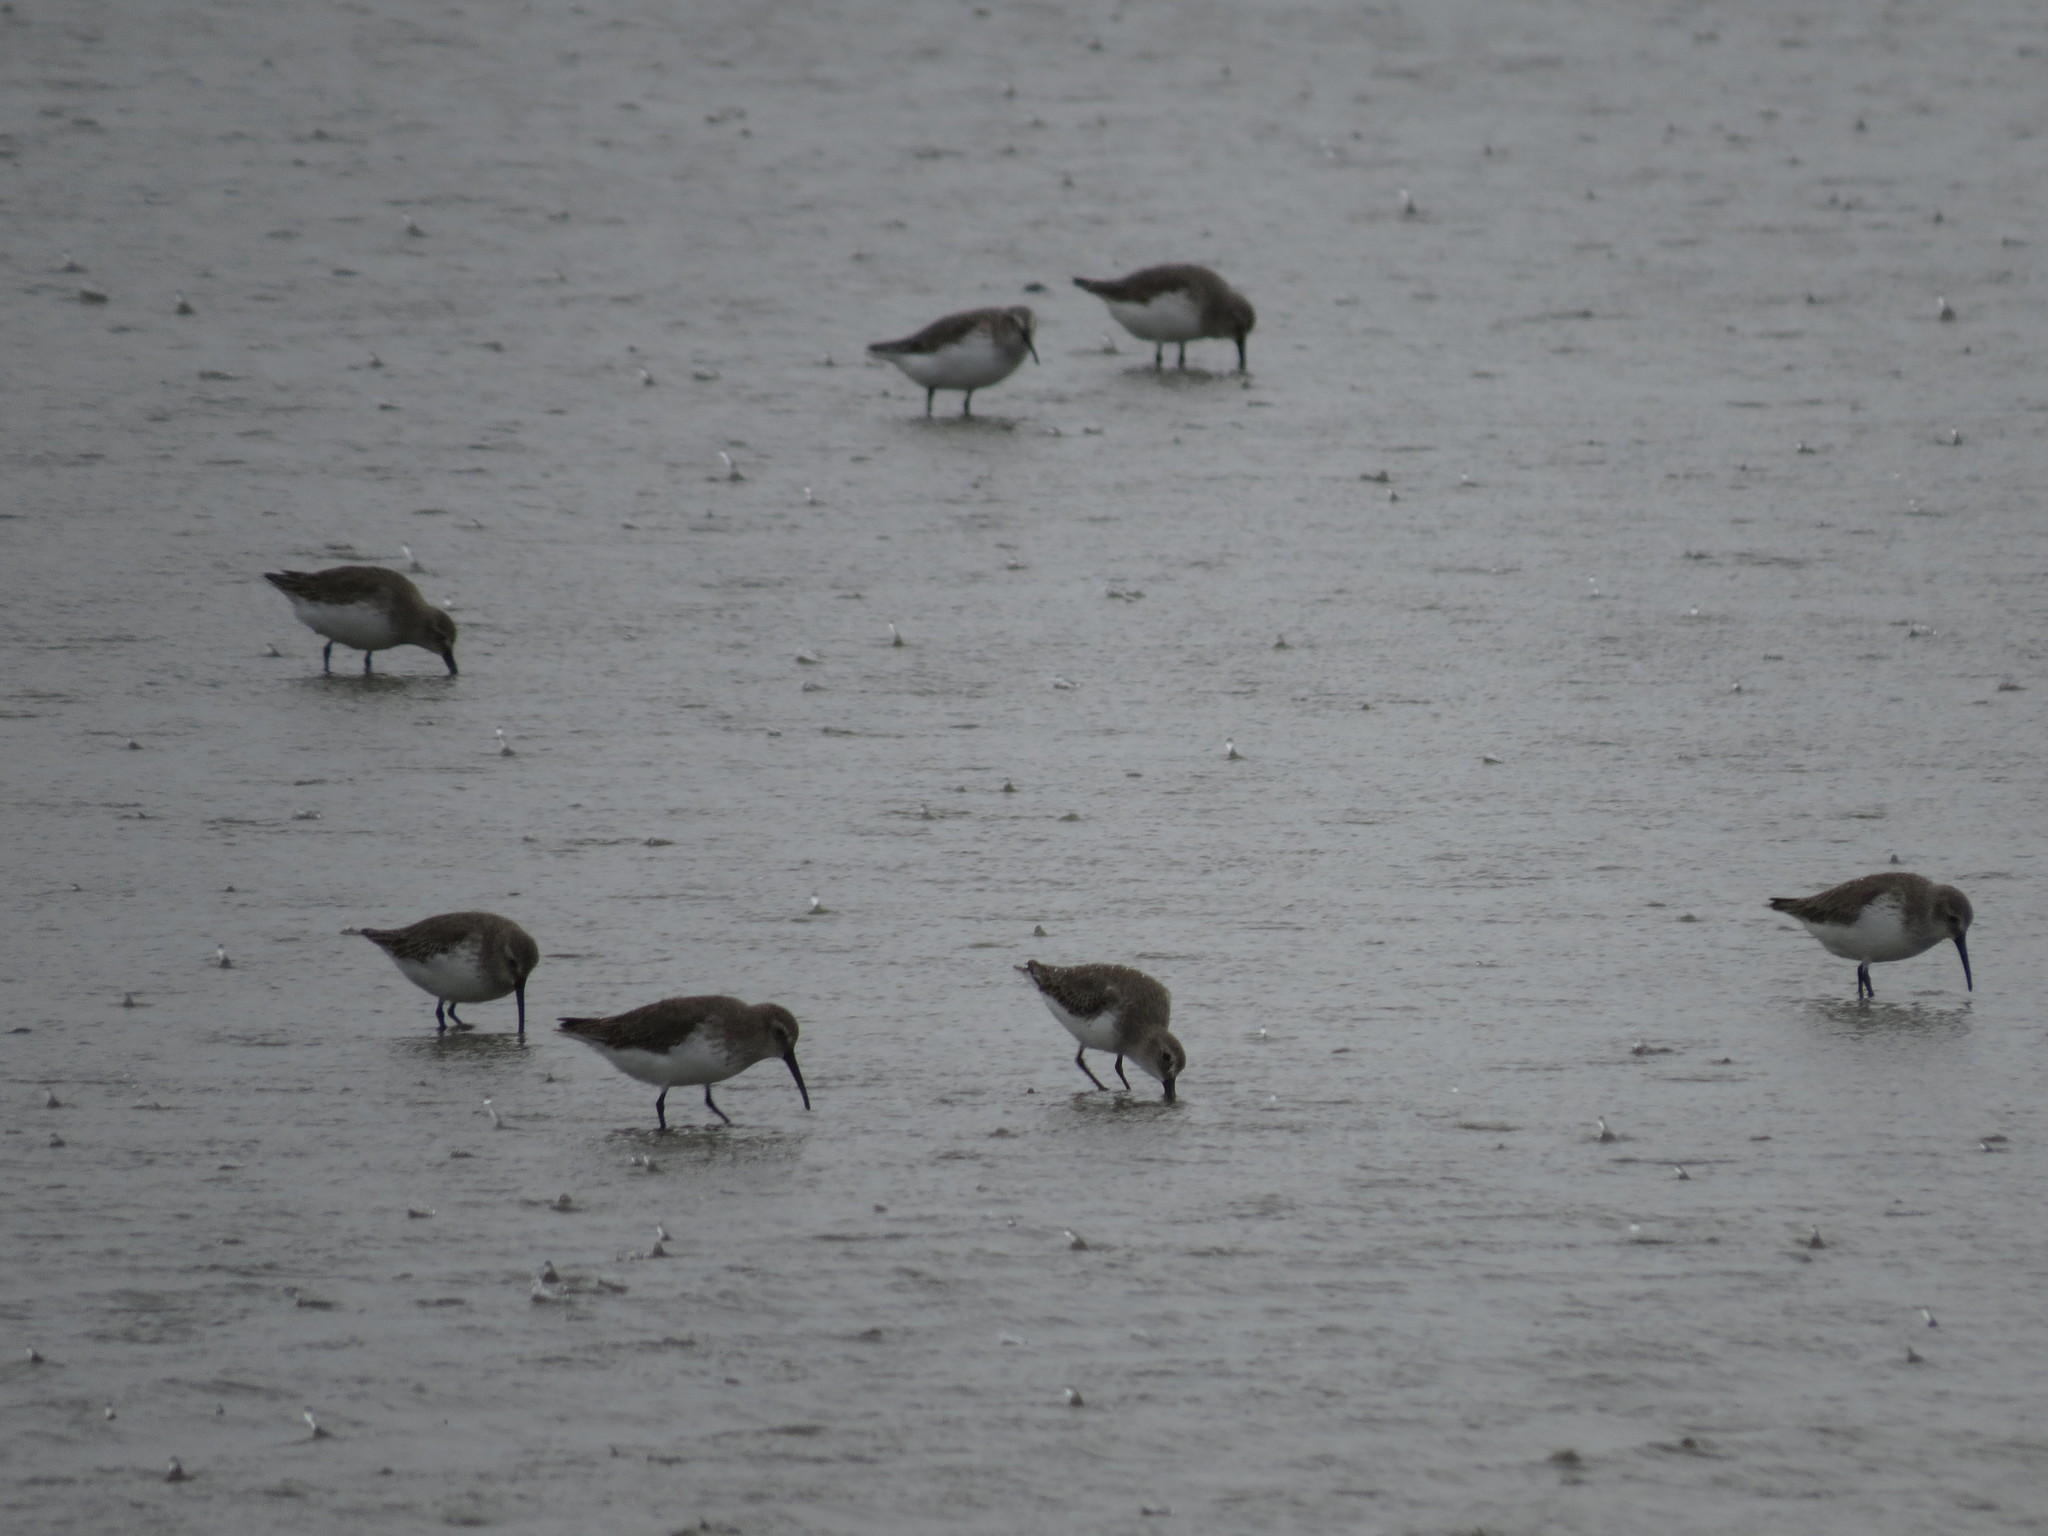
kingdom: Animalia
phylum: Chordata
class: Aves
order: Charadriiformes
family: Scolopacidae
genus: Calidris
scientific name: Calidris alpina
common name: Dunlin
